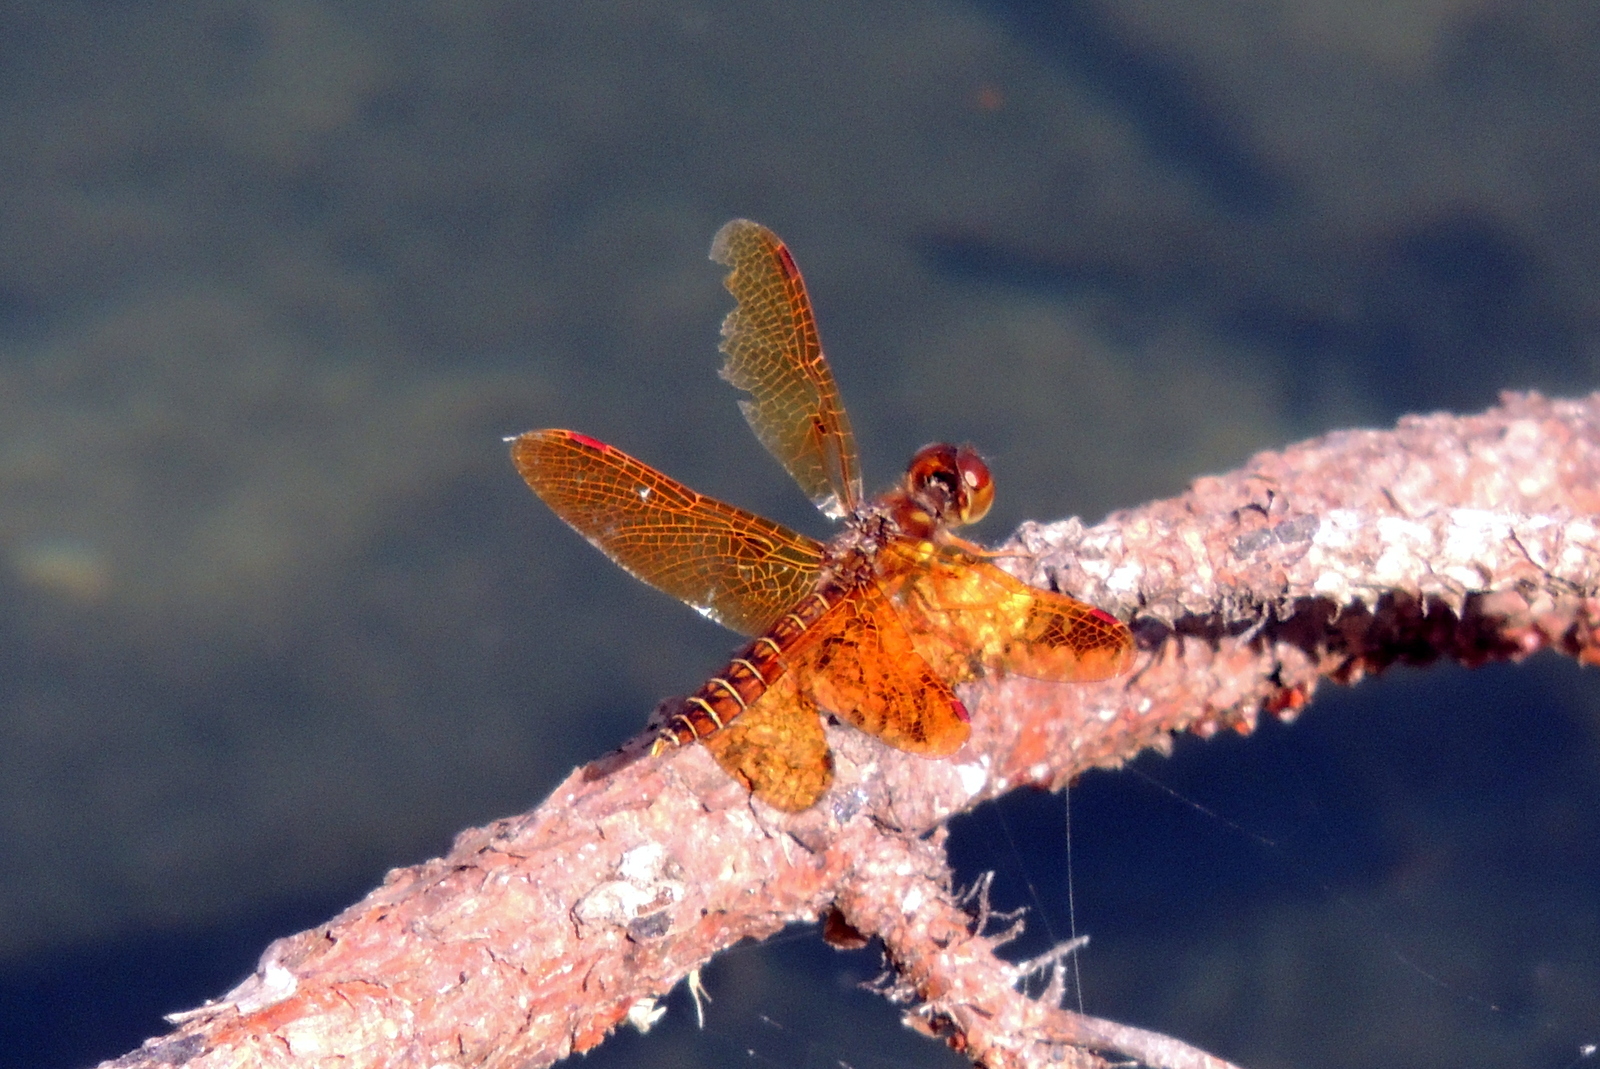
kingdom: Animalia
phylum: Arthropoda
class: Insecta
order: Odonata
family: Libellulidae
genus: Perithemis
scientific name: Perithemis tenera
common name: Eastern amberwing
